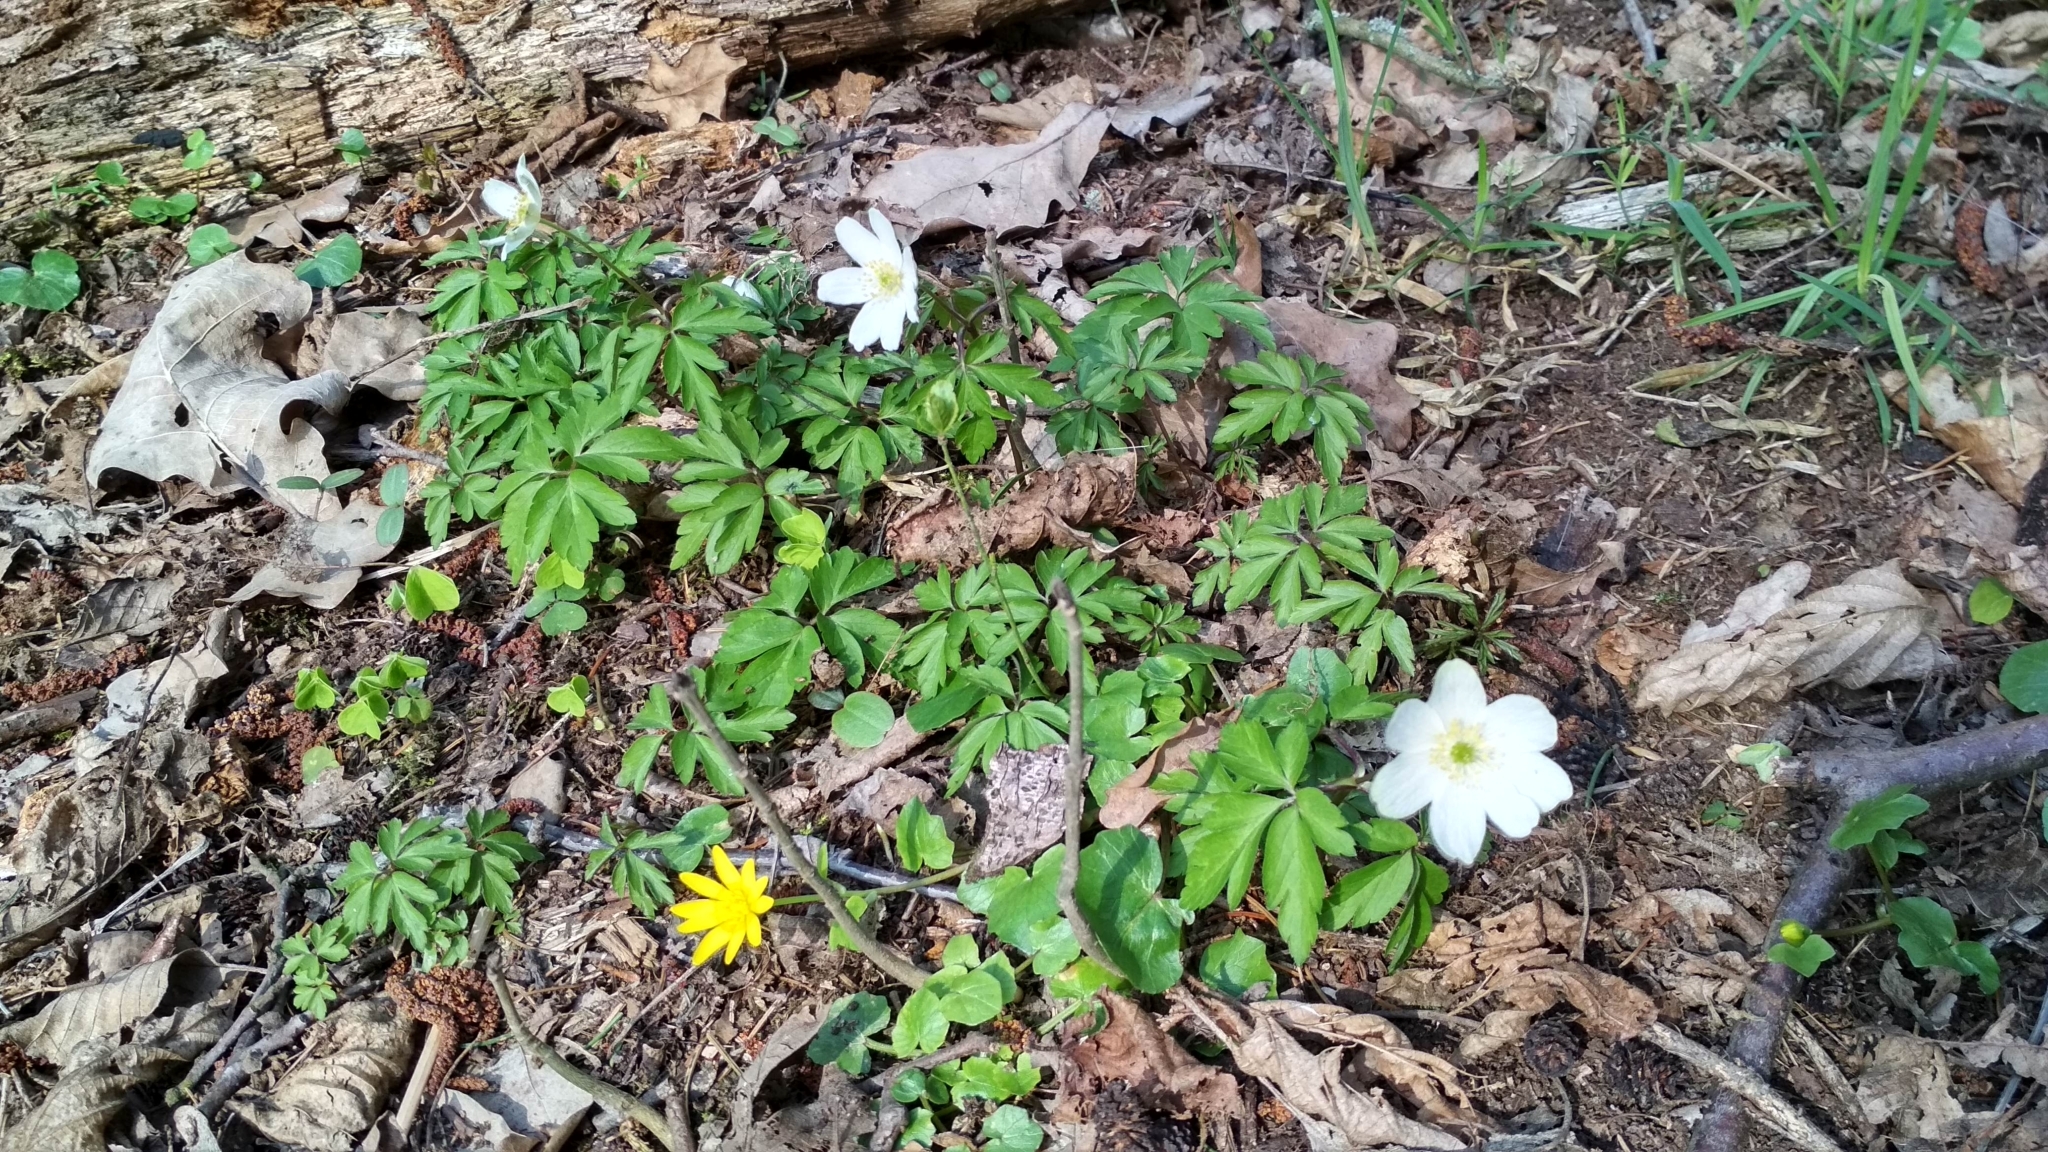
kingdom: Plantae
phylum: Tracheophyta
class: Magnoliopsida
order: Ranunculales
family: Ranunculaceae
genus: Anemone
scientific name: Anemone nemorosa
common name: Wood anemone
